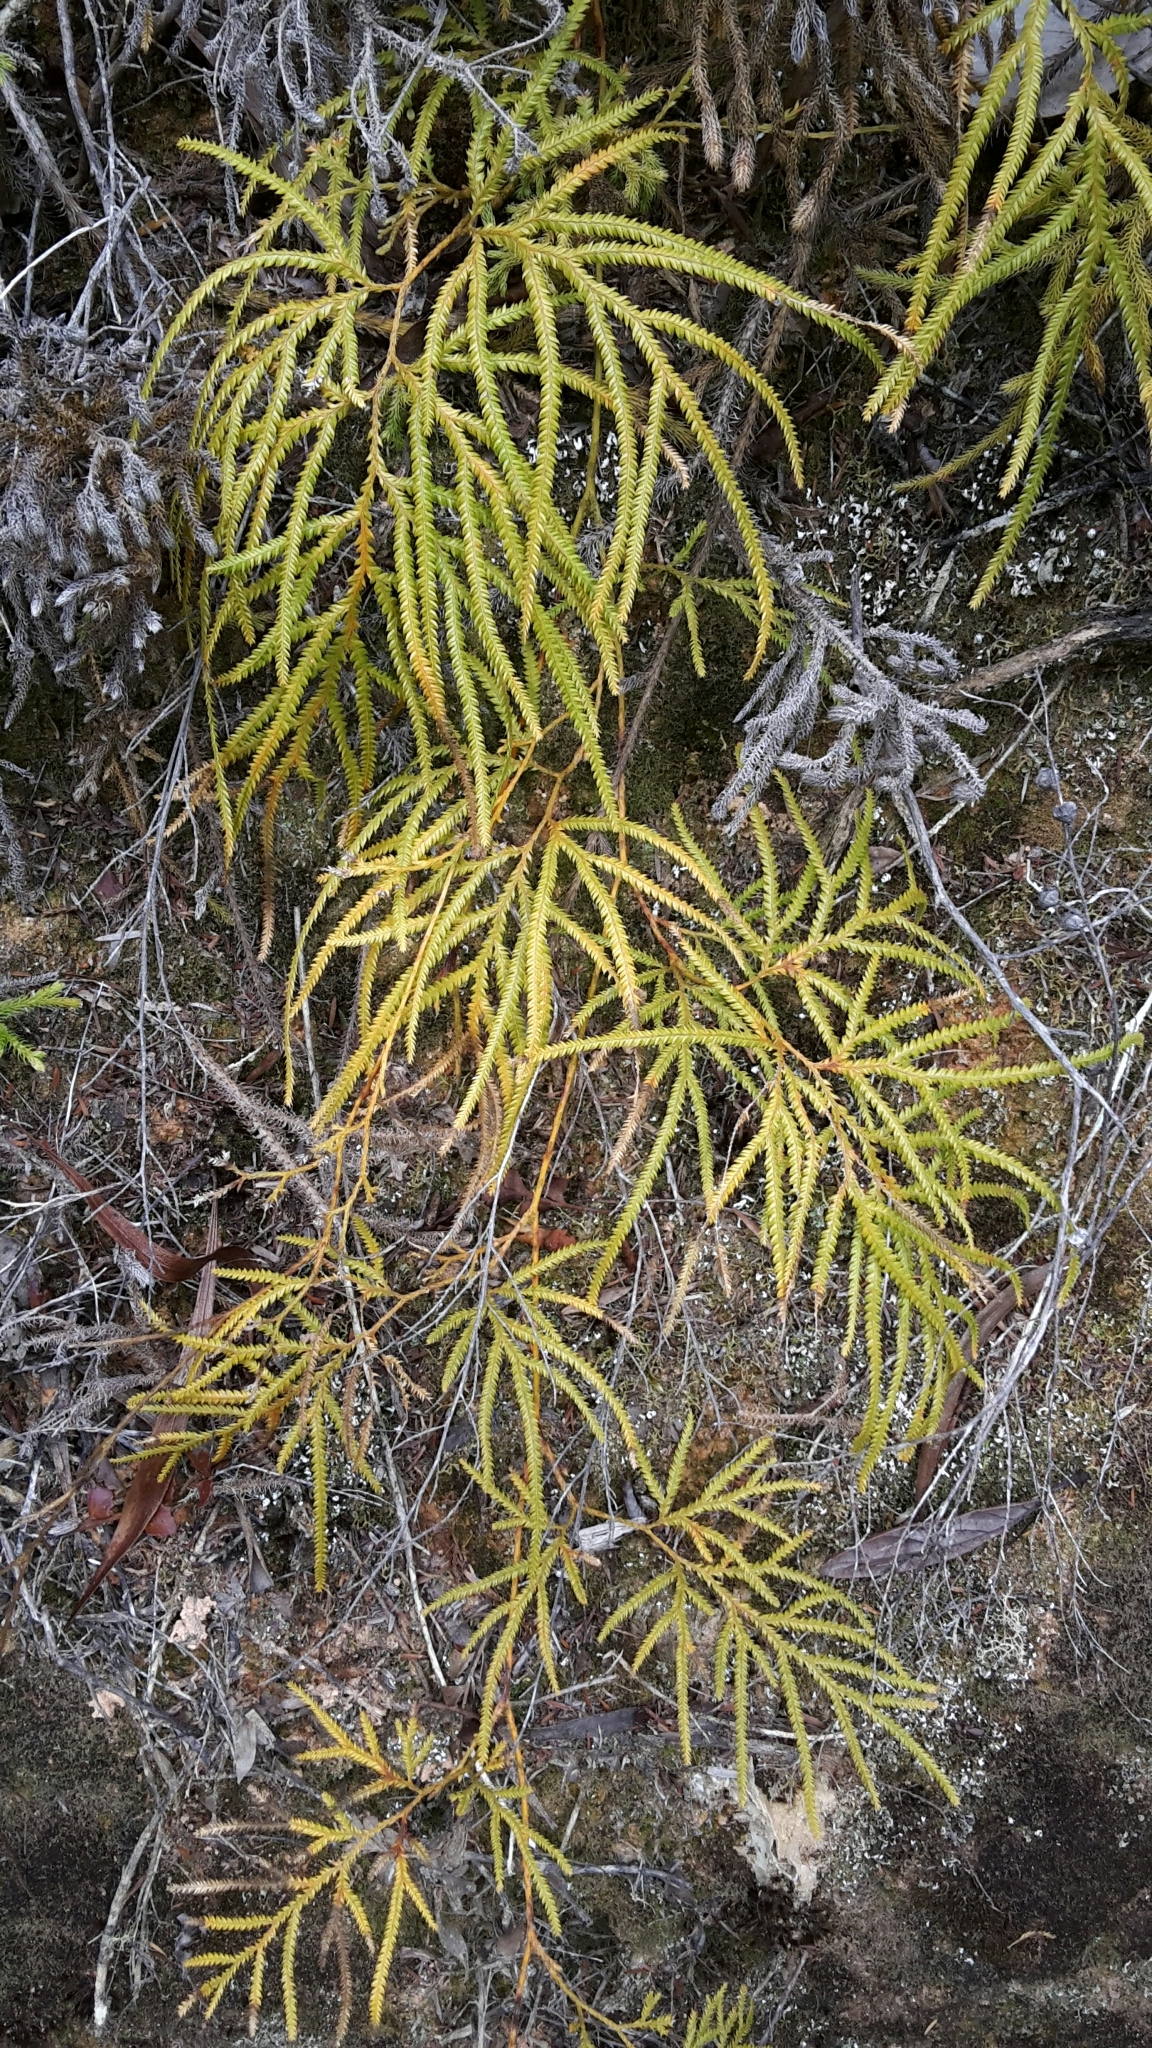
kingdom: Plantae
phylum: Tracheophyta
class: Lycopodiopsida
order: Lycopodiales
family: Lycopodiaceae
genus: Lycopodium
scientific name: Lycopodium volubile
